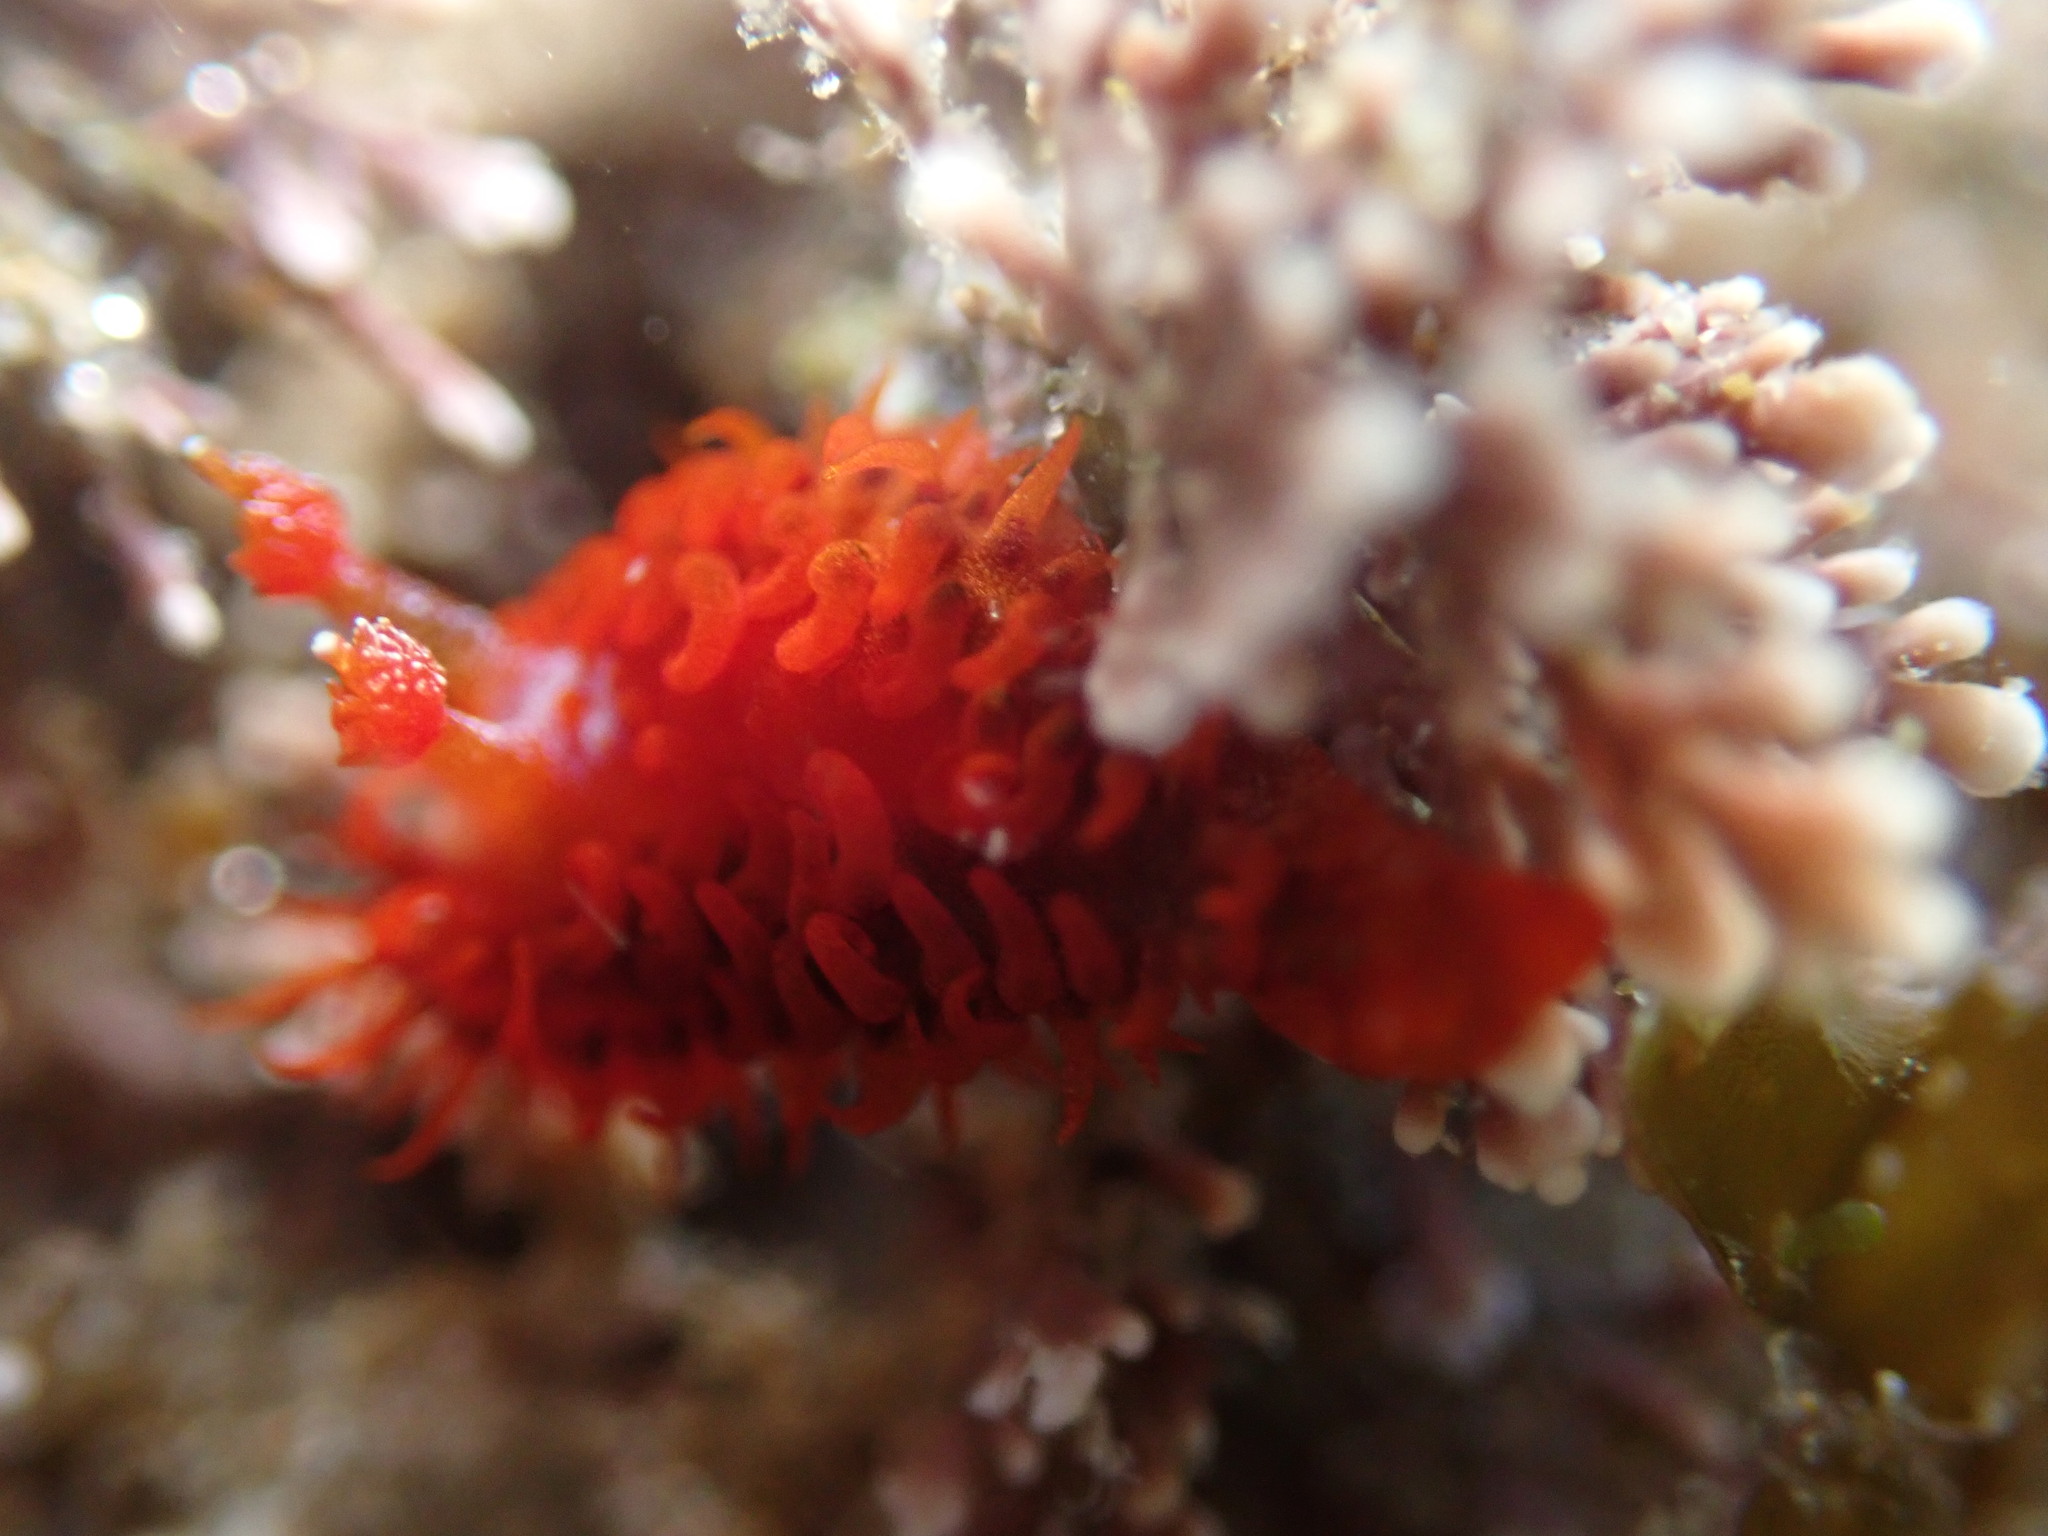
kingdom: Animalia
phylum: Mollusca
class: Gastropoda
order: Nudibranchia
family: Madrellidae
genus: Madrella
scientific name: Madrella sanguinea
